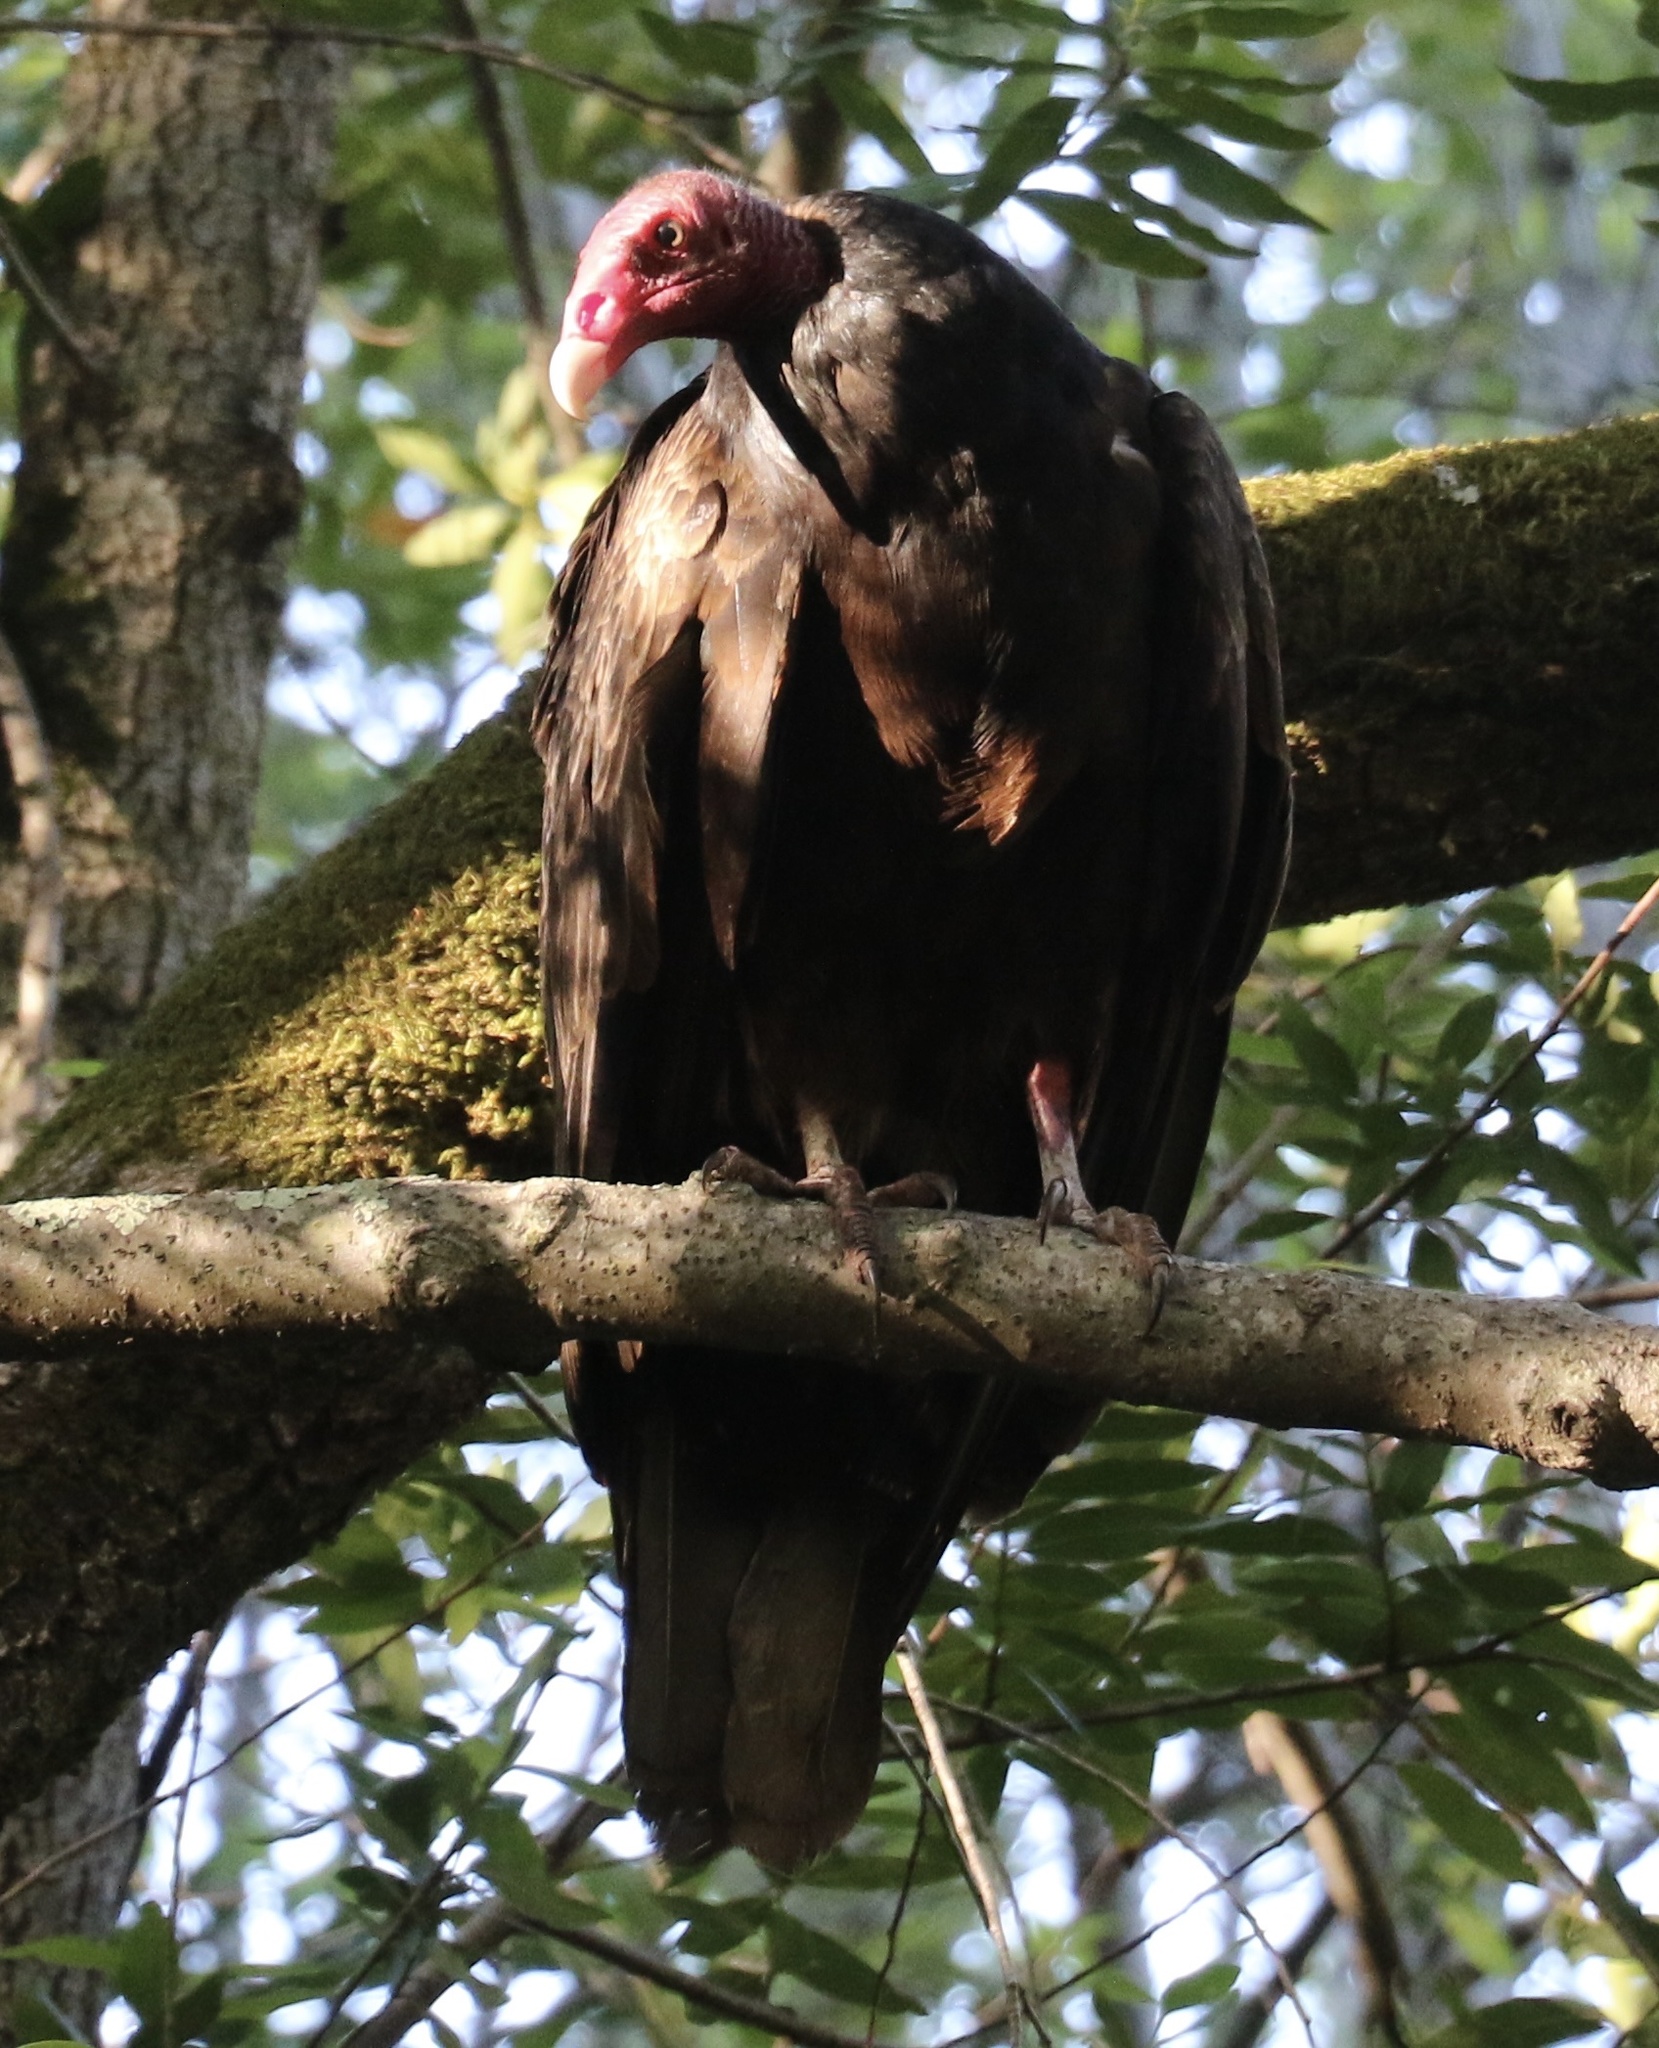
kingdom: Animalia
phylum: Chordata
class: Aves
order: Accipitriformes
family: Cathartidae
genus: Cathartes
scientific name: Cathartes aura
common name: Turkey vulture
